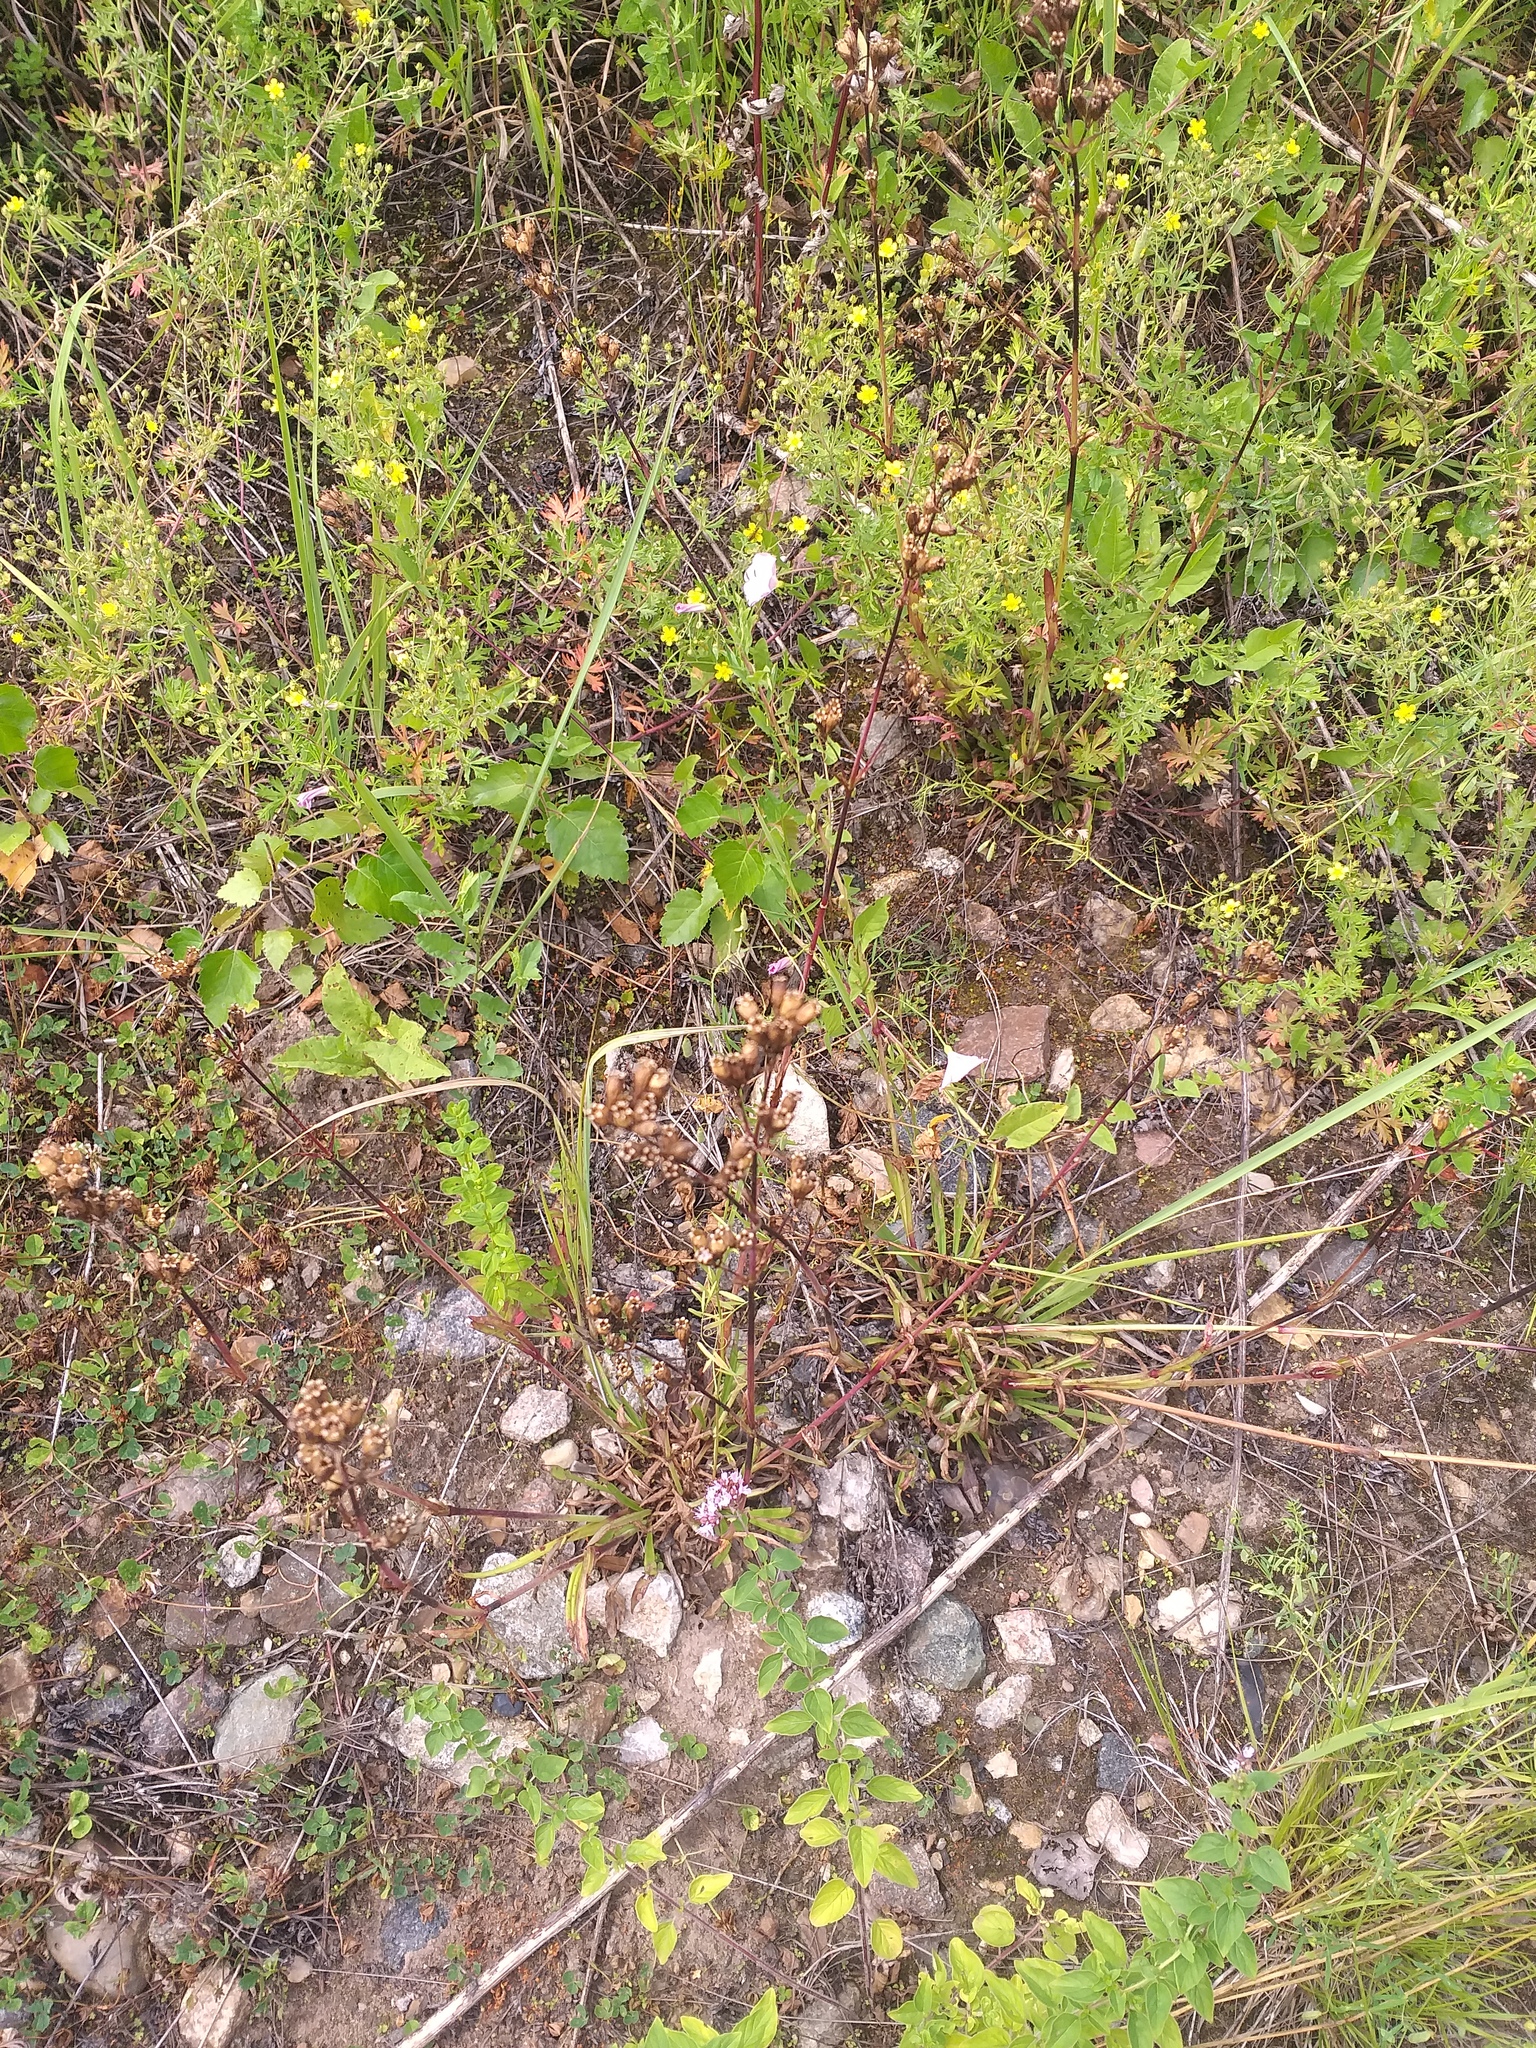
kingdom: Plantae
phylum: Tracheophyta
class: Magnoliopsida
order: Caryophyllales
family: Caryophyllaceae
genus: Viscaria
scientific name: Viscaria vulgaris
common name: Clammy campion
